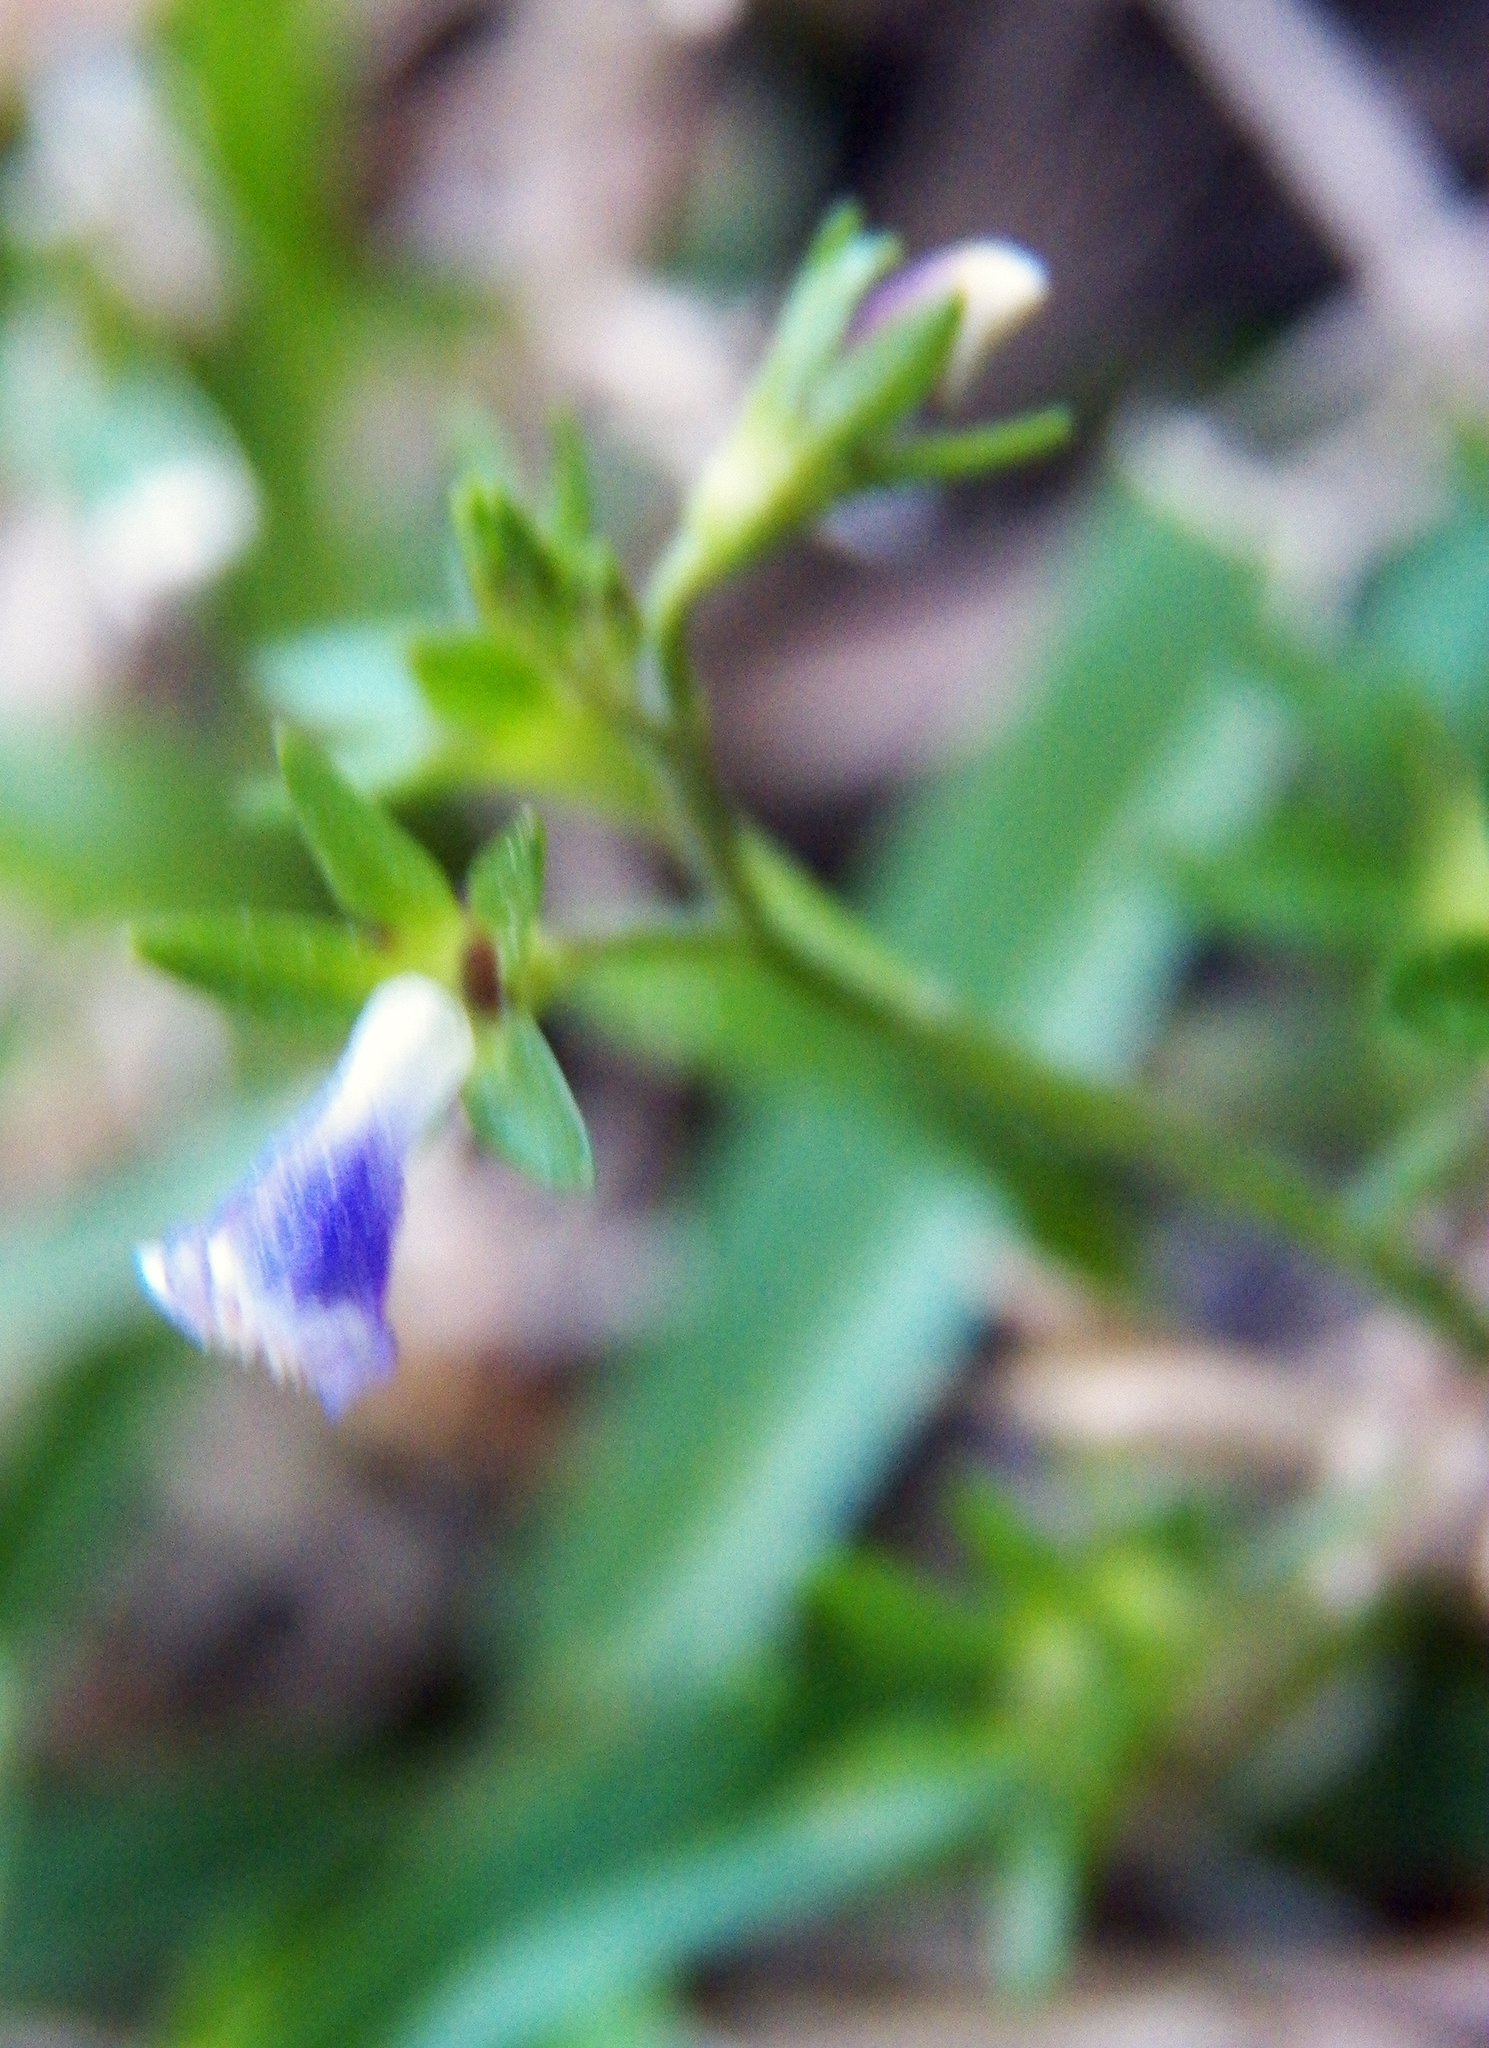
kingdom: Plantae
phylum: Tracheophyta
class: Magnoliopsida
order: Lamiales
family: Mazaceae
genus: Mazus
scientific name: Mazus pumilus
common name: Japanese mazus
